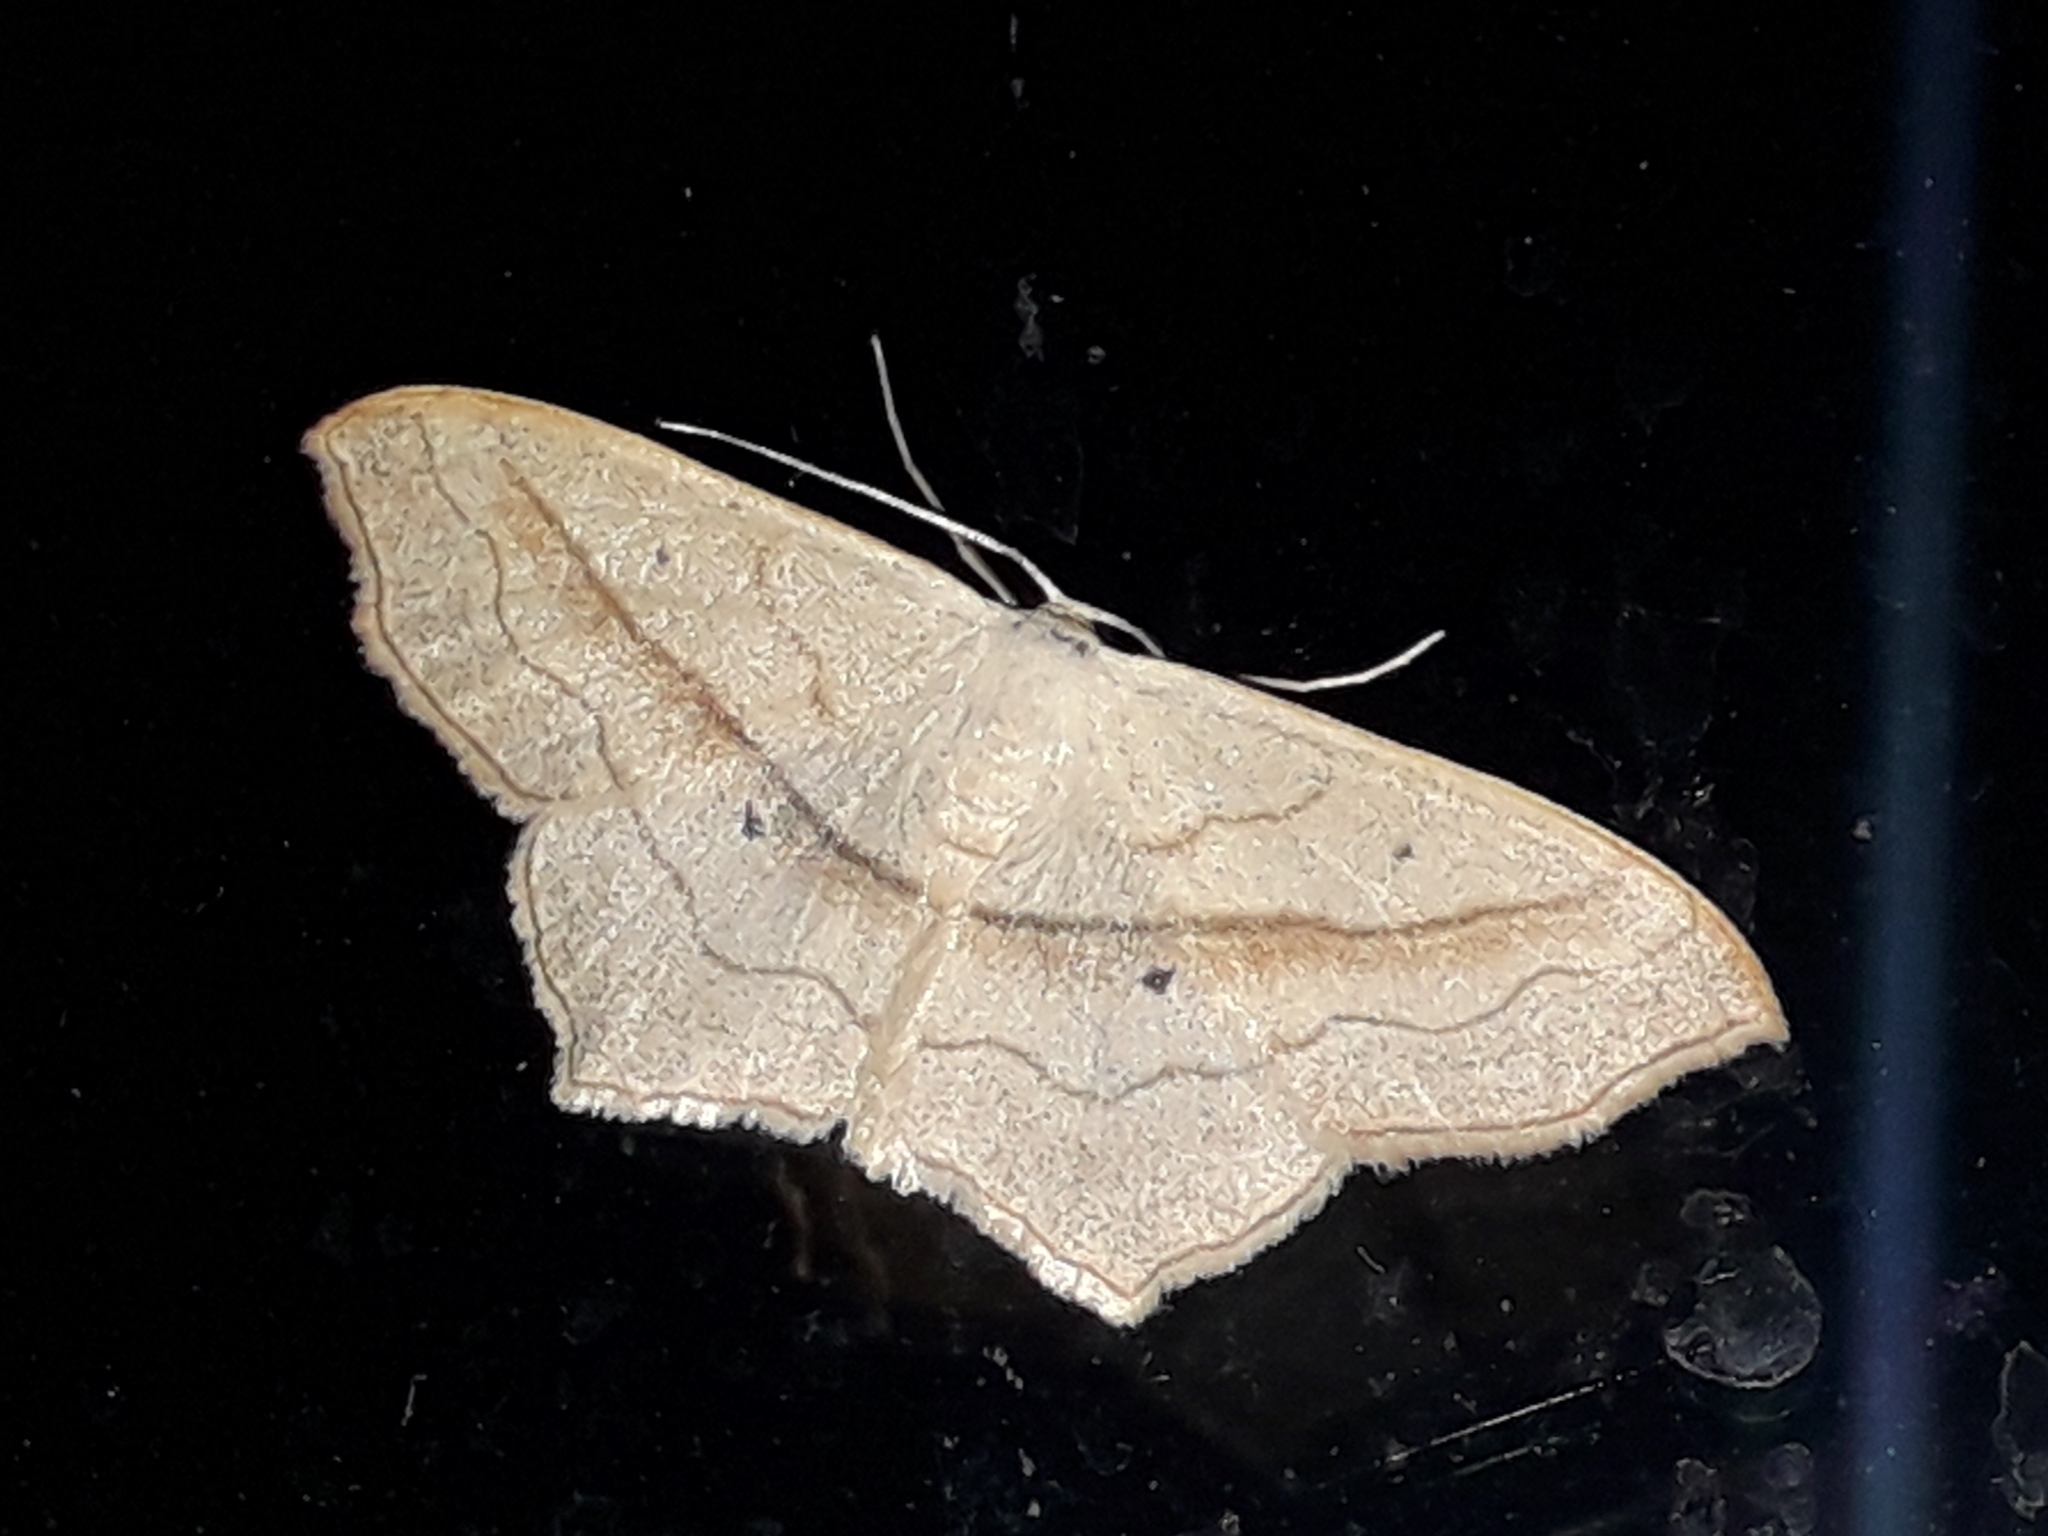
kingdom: Animalia
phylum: Arthropoda
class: Insecta
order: Lepidoptera
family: Geometridae
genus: Scopula
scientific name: Scopula imitaria
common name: Small blood-vein
